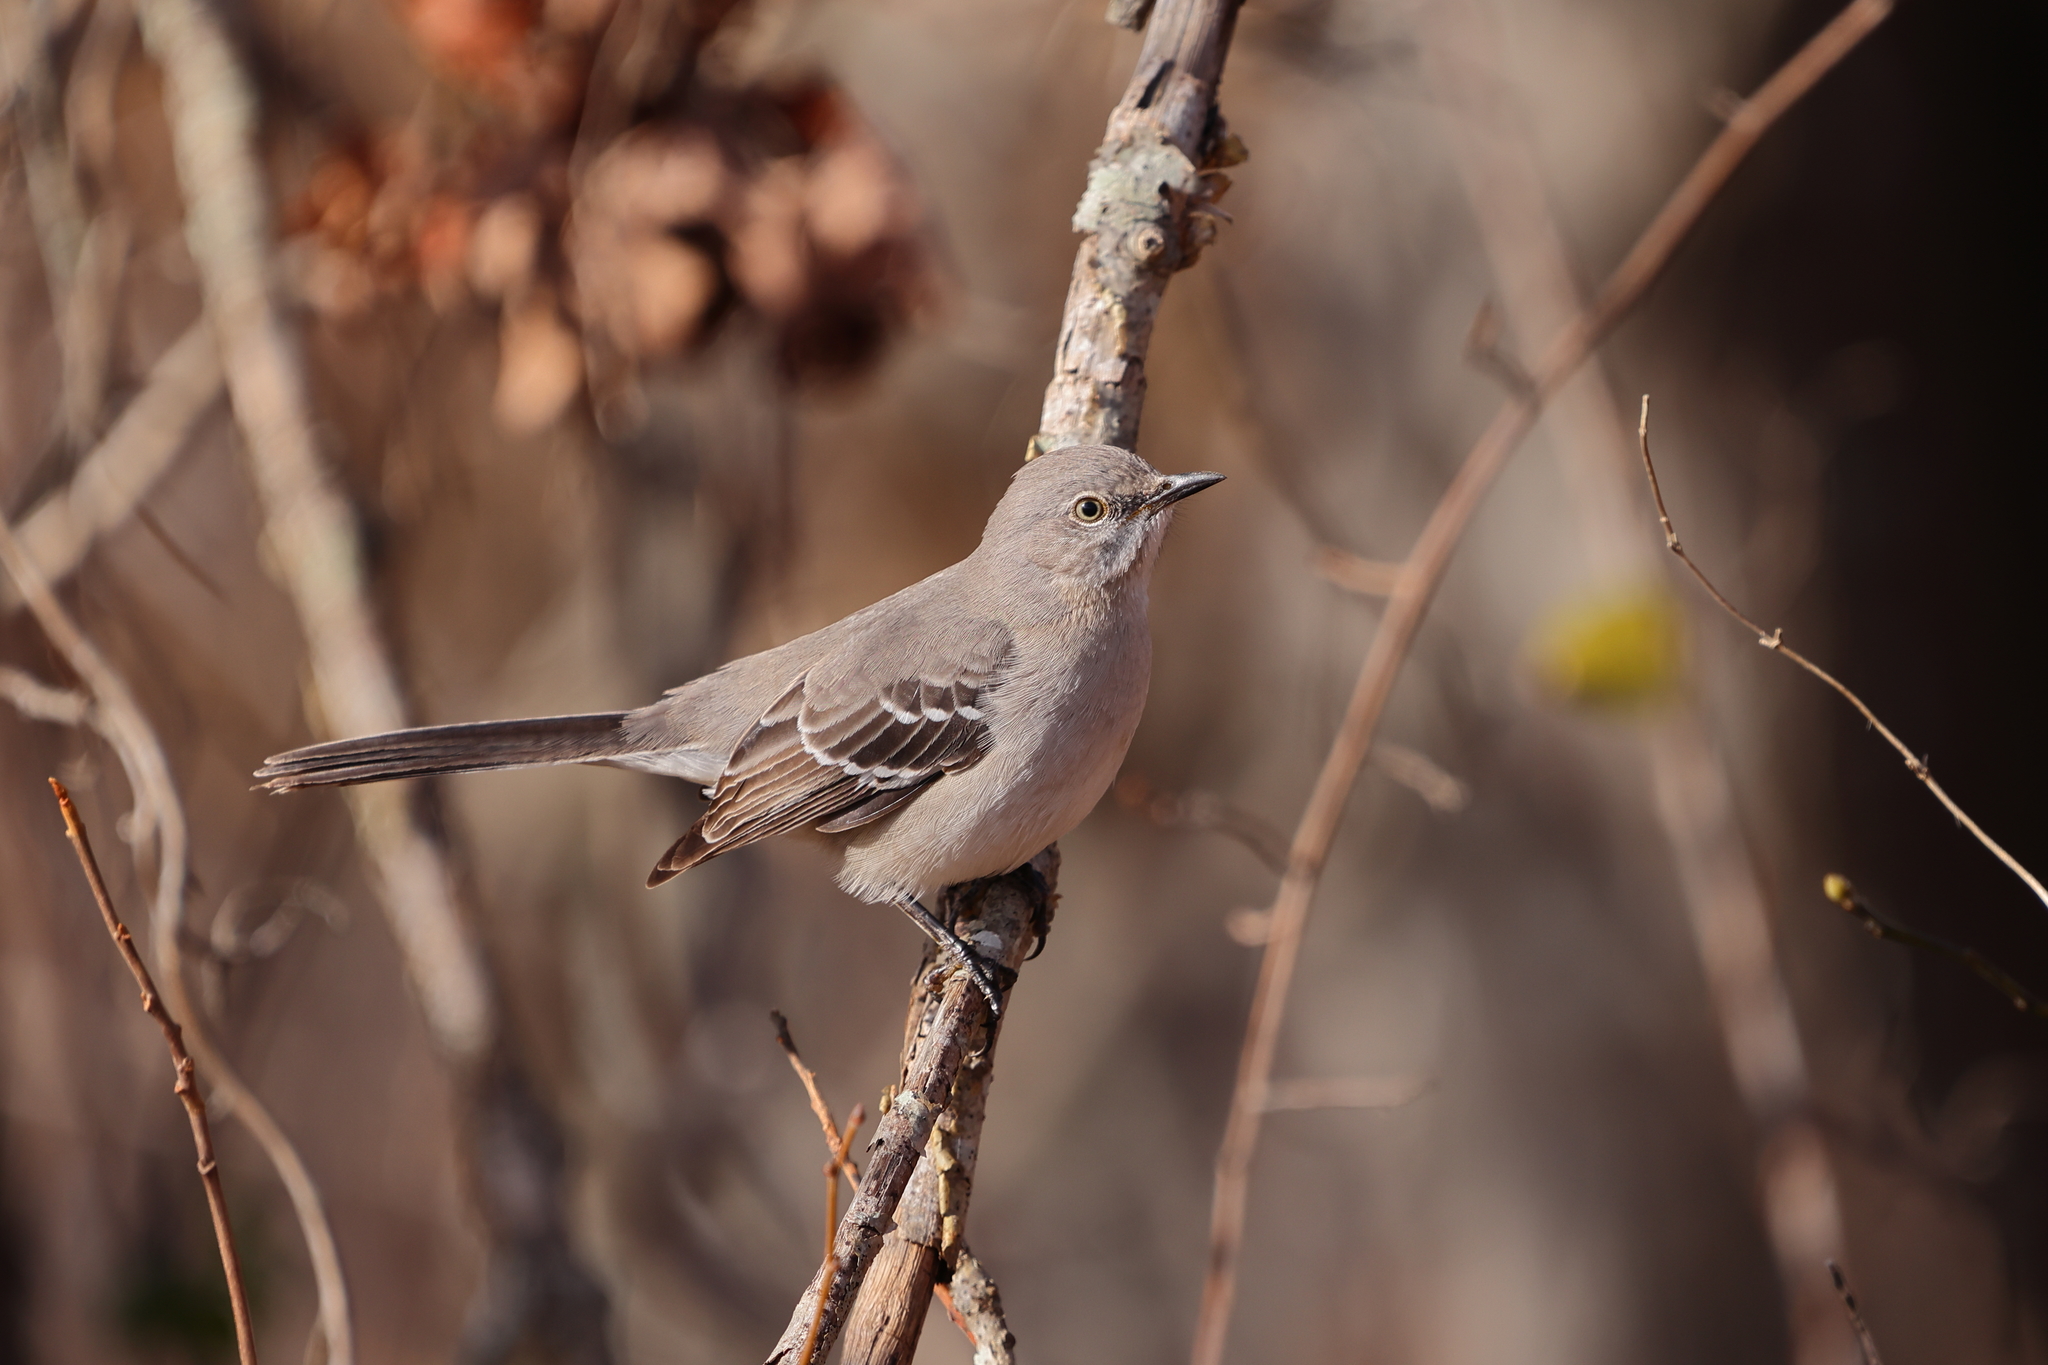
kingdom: Animalia
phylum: Chordata
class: Aves
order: Passeriformes
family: Mimidae
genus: Mimus
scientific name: Mimus polyglottos
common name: Northern mockingbird
